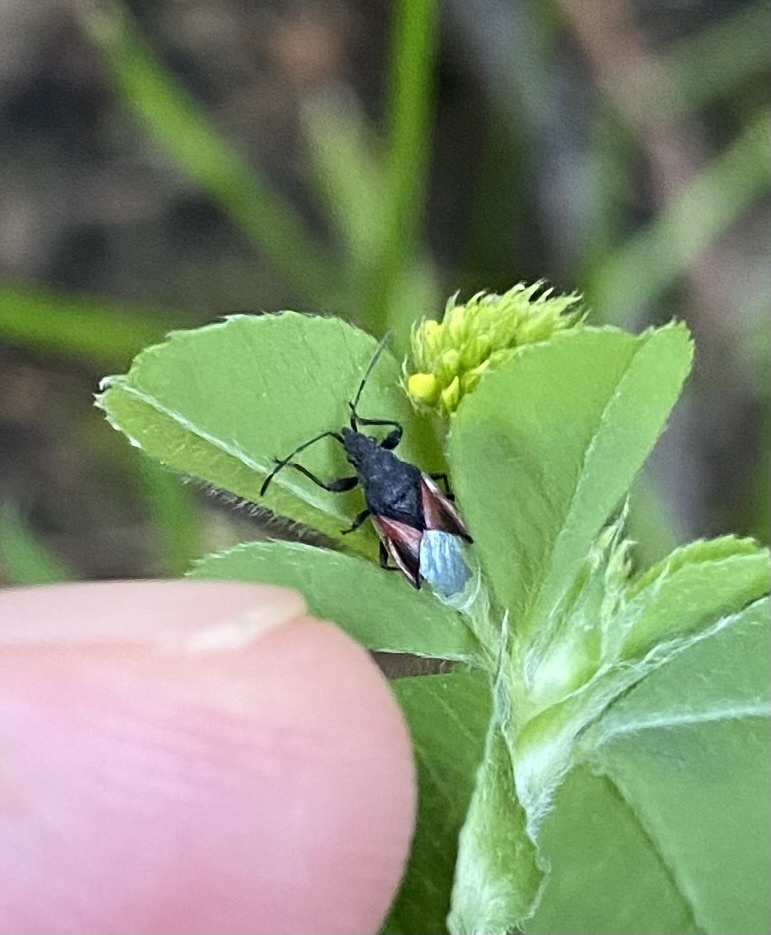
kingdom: Animalia
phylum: Arthropoda
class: Insecta
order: Hemiptera
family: Oxycarenidae
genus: Oxycarenus
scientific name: Oxycarenus lavaterae
